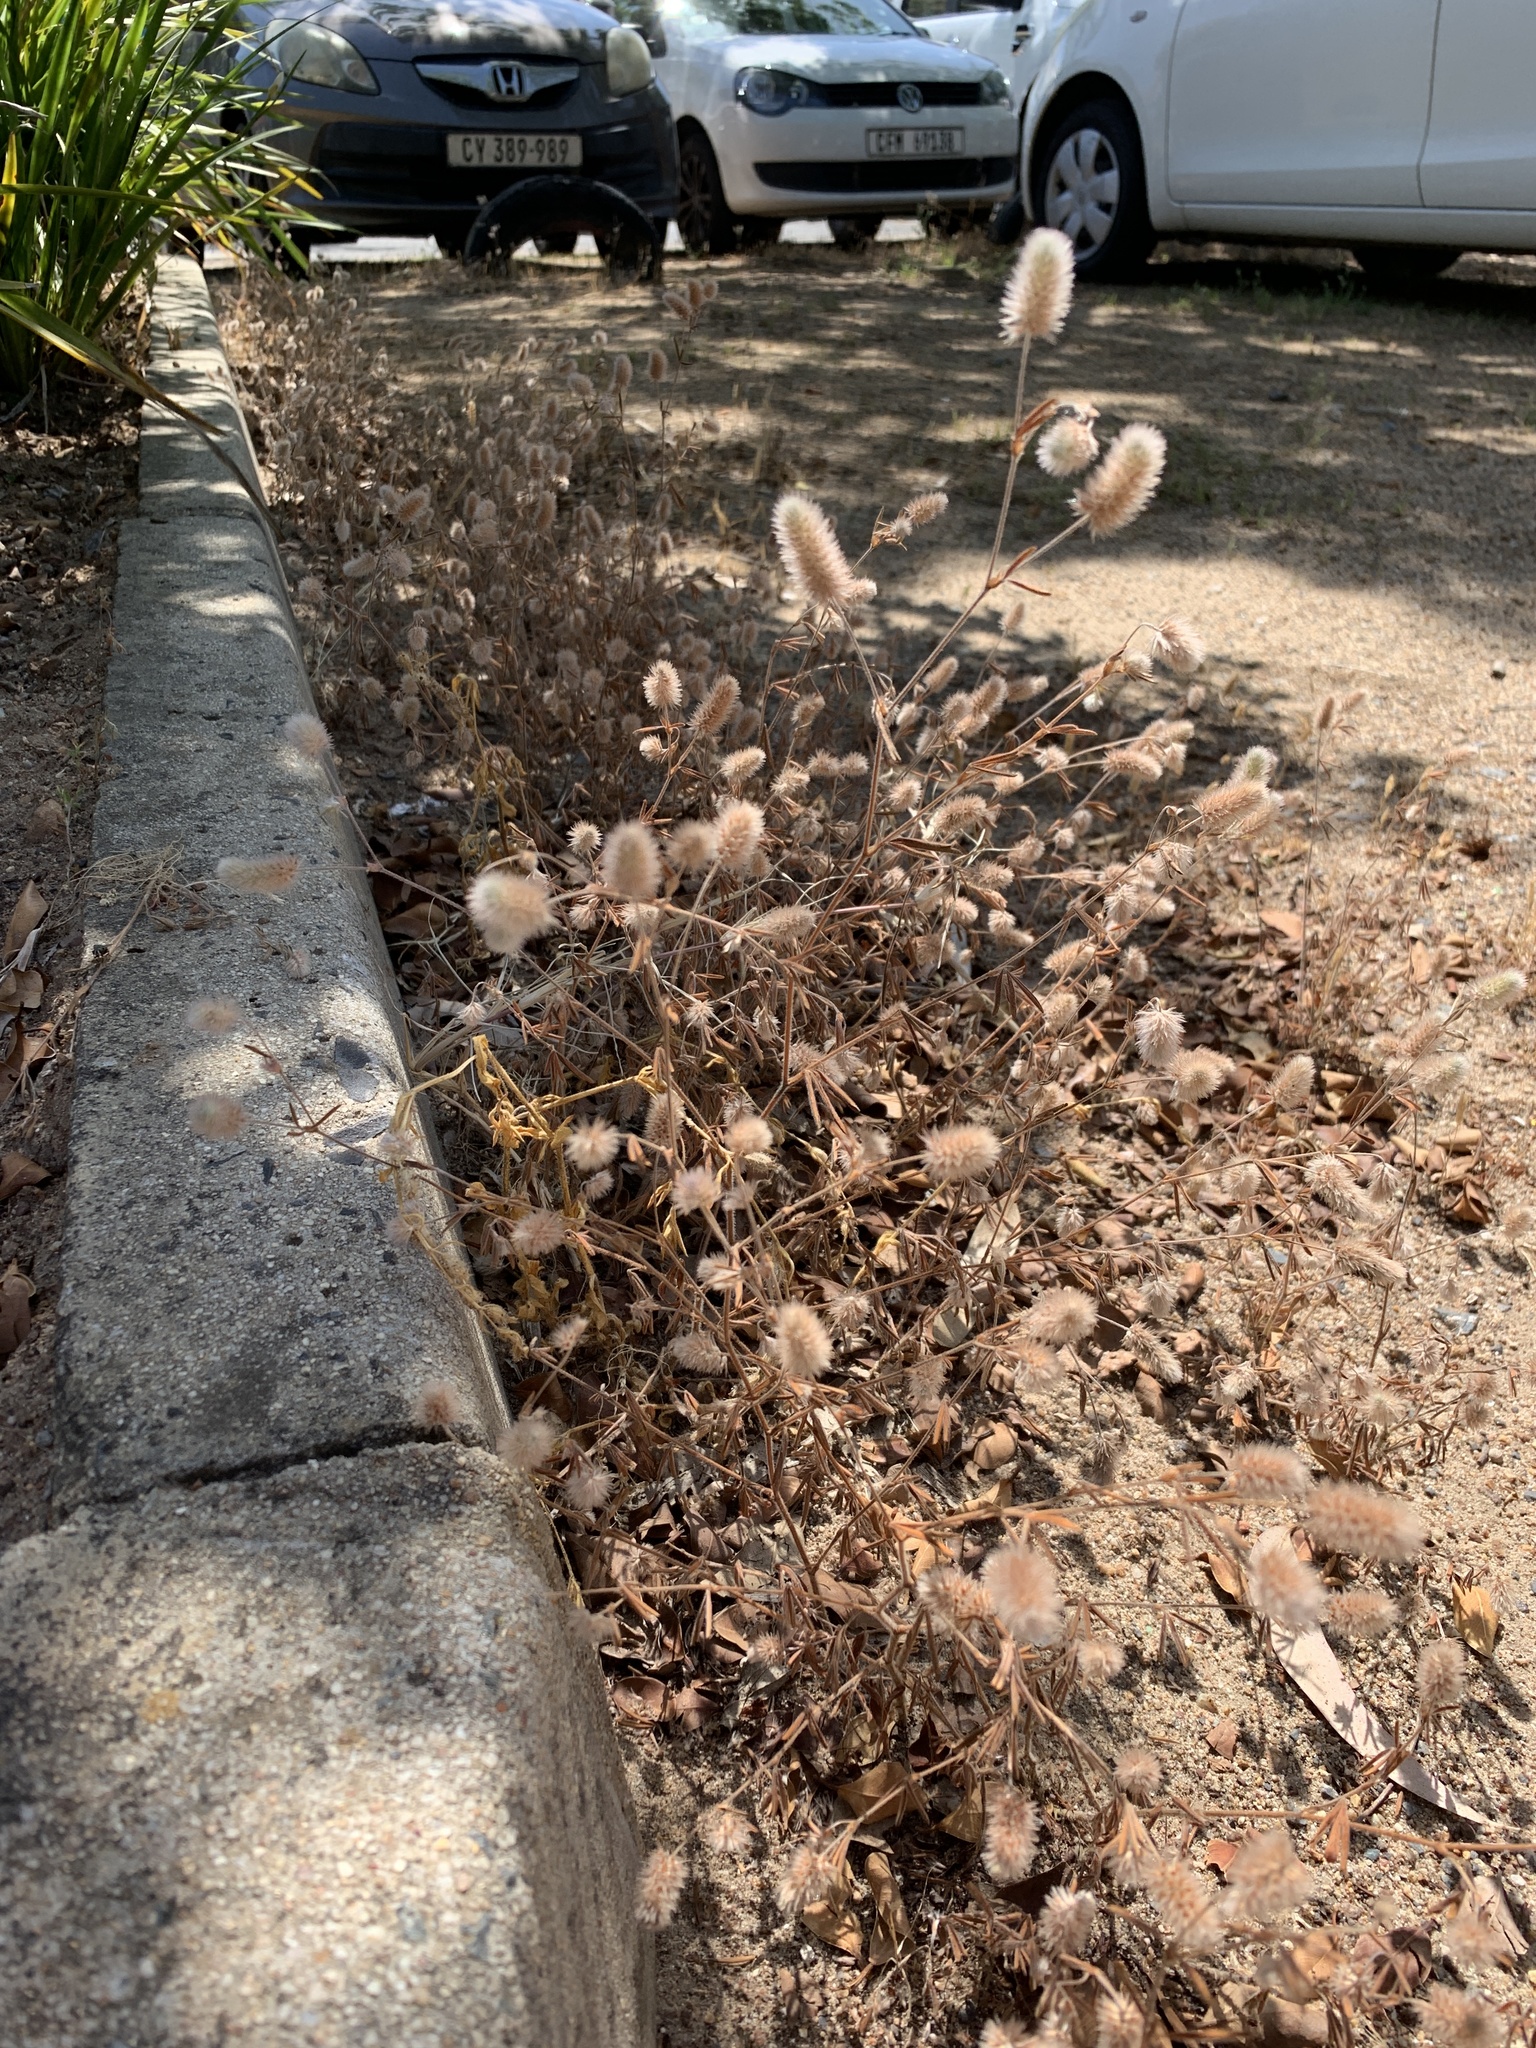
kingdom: Plantae
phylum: Tracheophyta
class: Magnoliopsida
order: Fabales
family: Fabaceae
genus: Trifolium
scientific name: Trifolium arvense
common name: Hare's-foot clover
